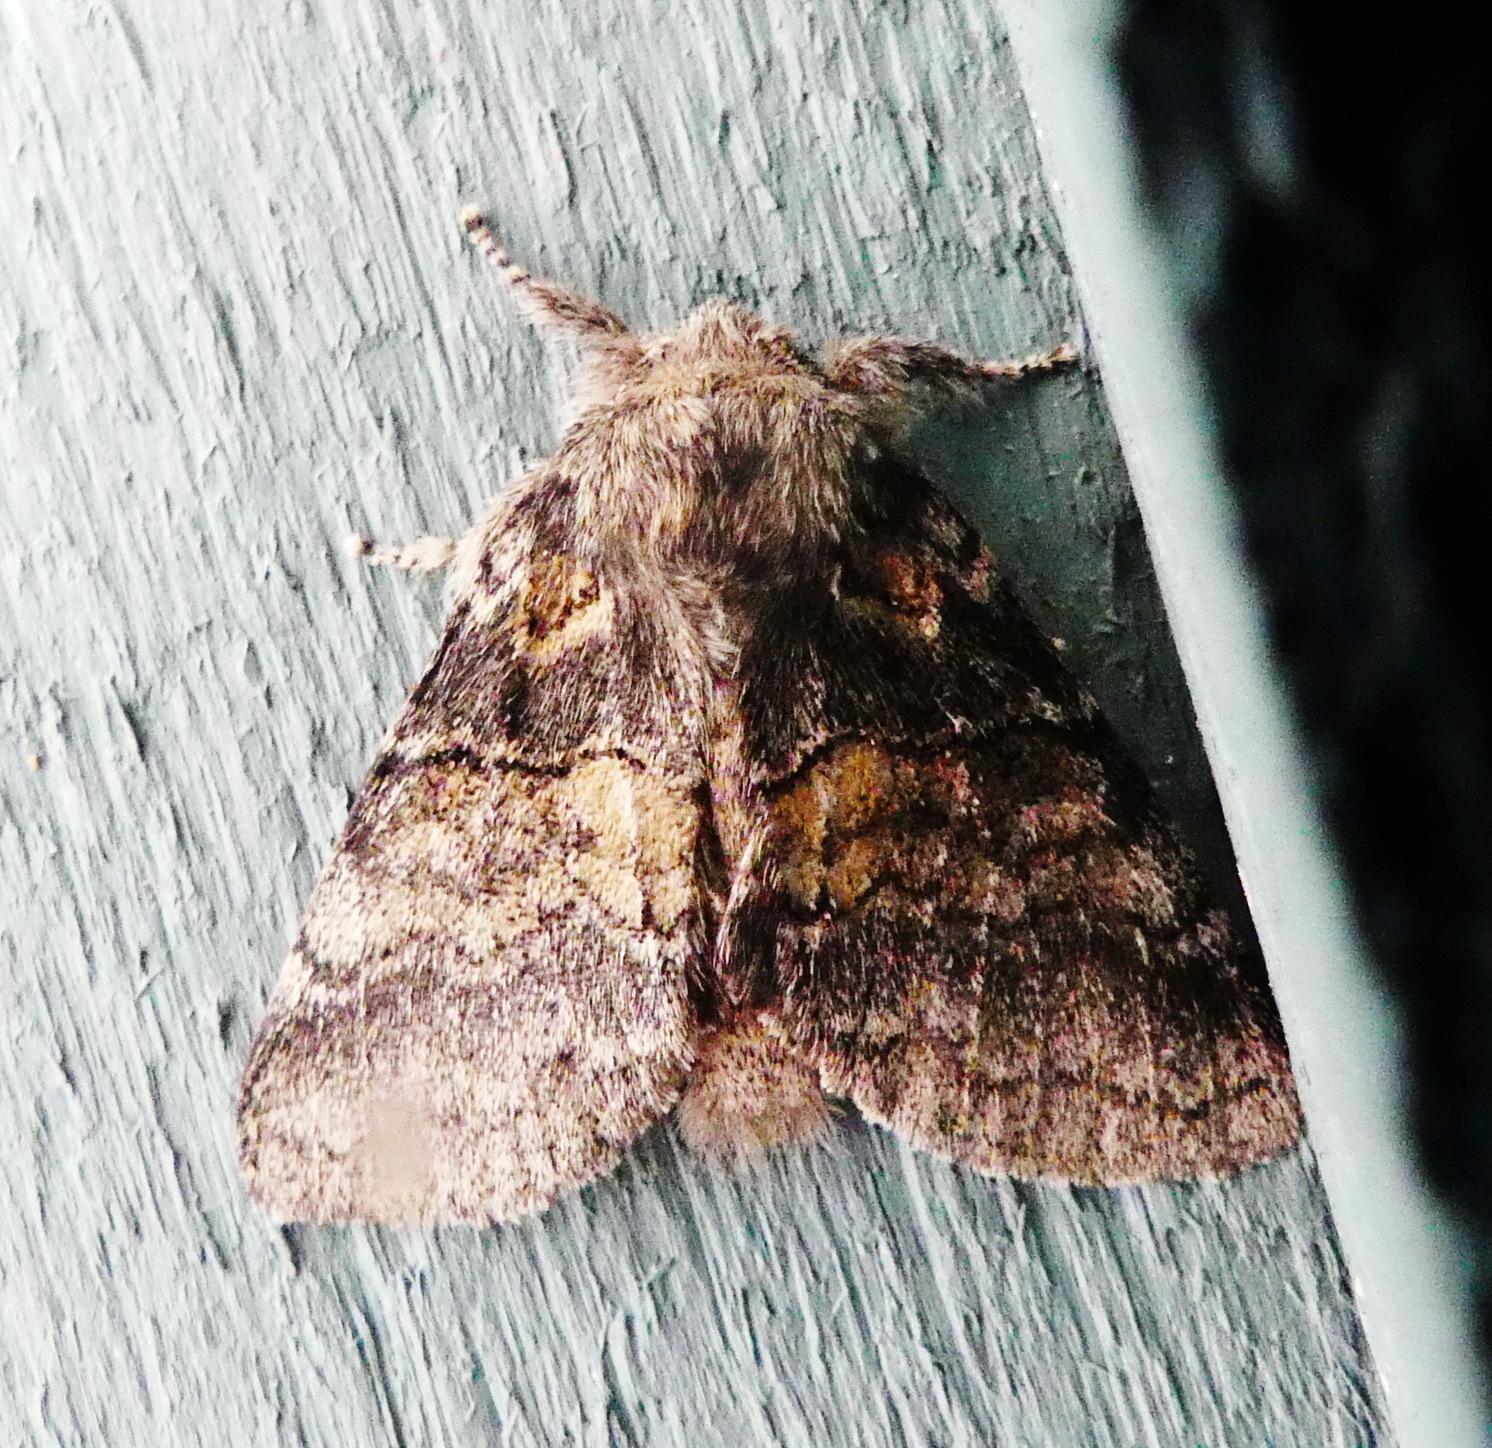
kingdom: Animalia
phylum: Arthropoda
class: Insecta
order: Lepidoptera
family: Notodontidae
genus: Gluphisia
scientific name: Gluphisia septentrionis
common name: Common gluphisia
